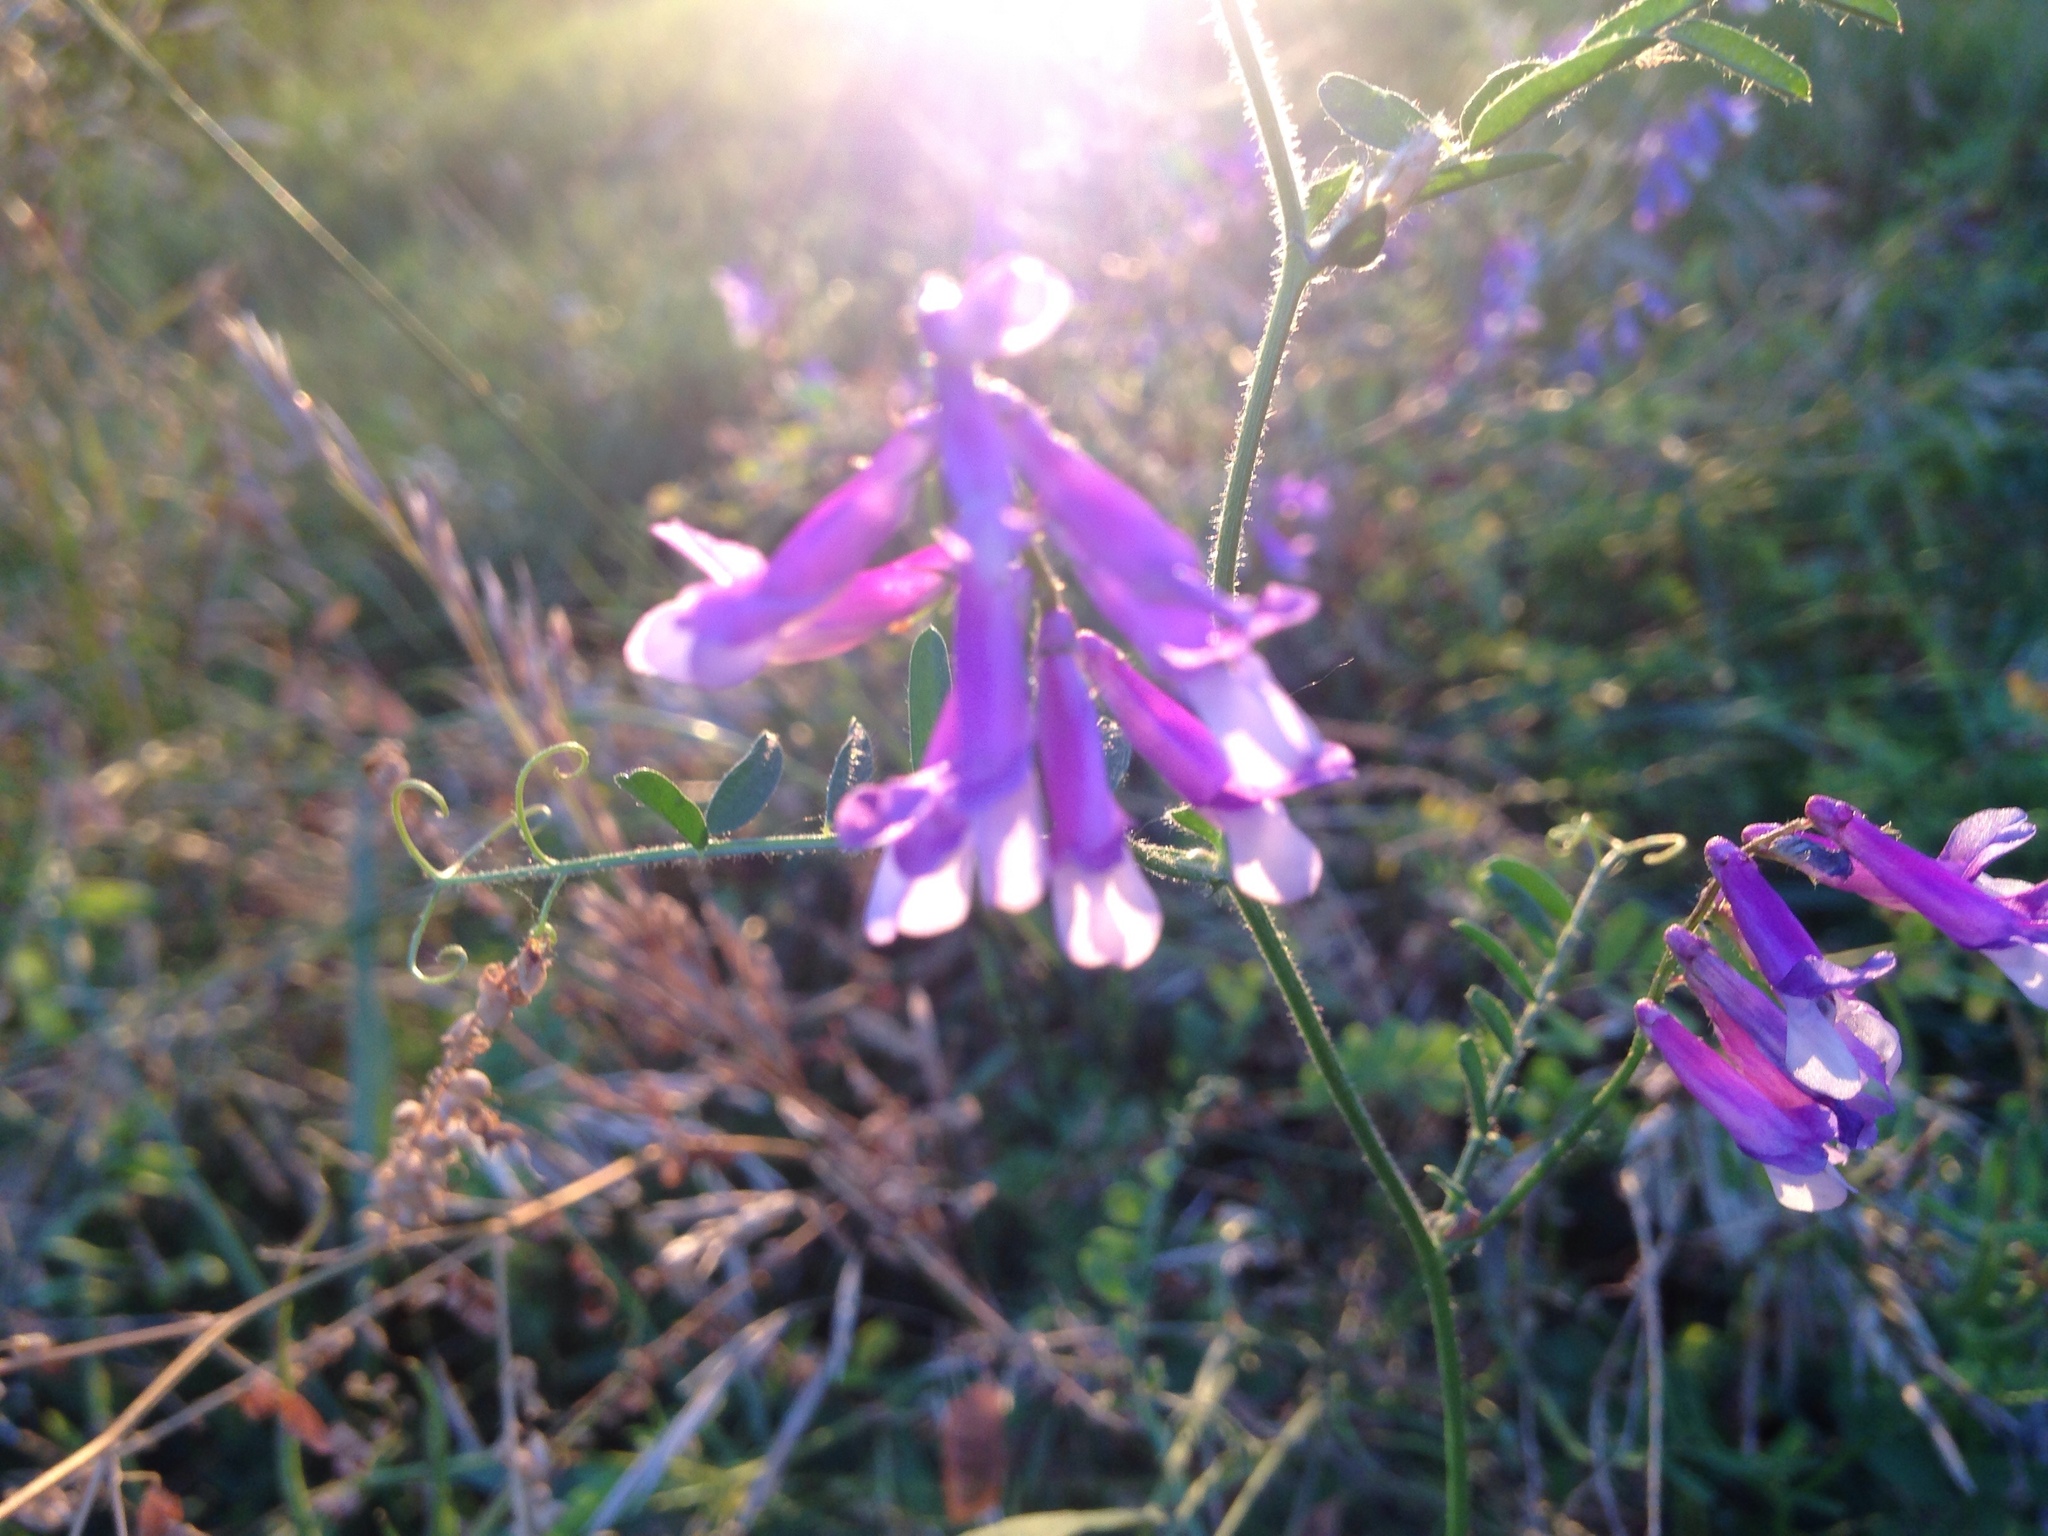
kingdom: Plantae
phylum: Tracheophyta
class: Magnoliopsida
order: Fabales
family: Fabaceae
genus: Vicia
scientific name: Vicia villosa
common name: Fodder vetch
